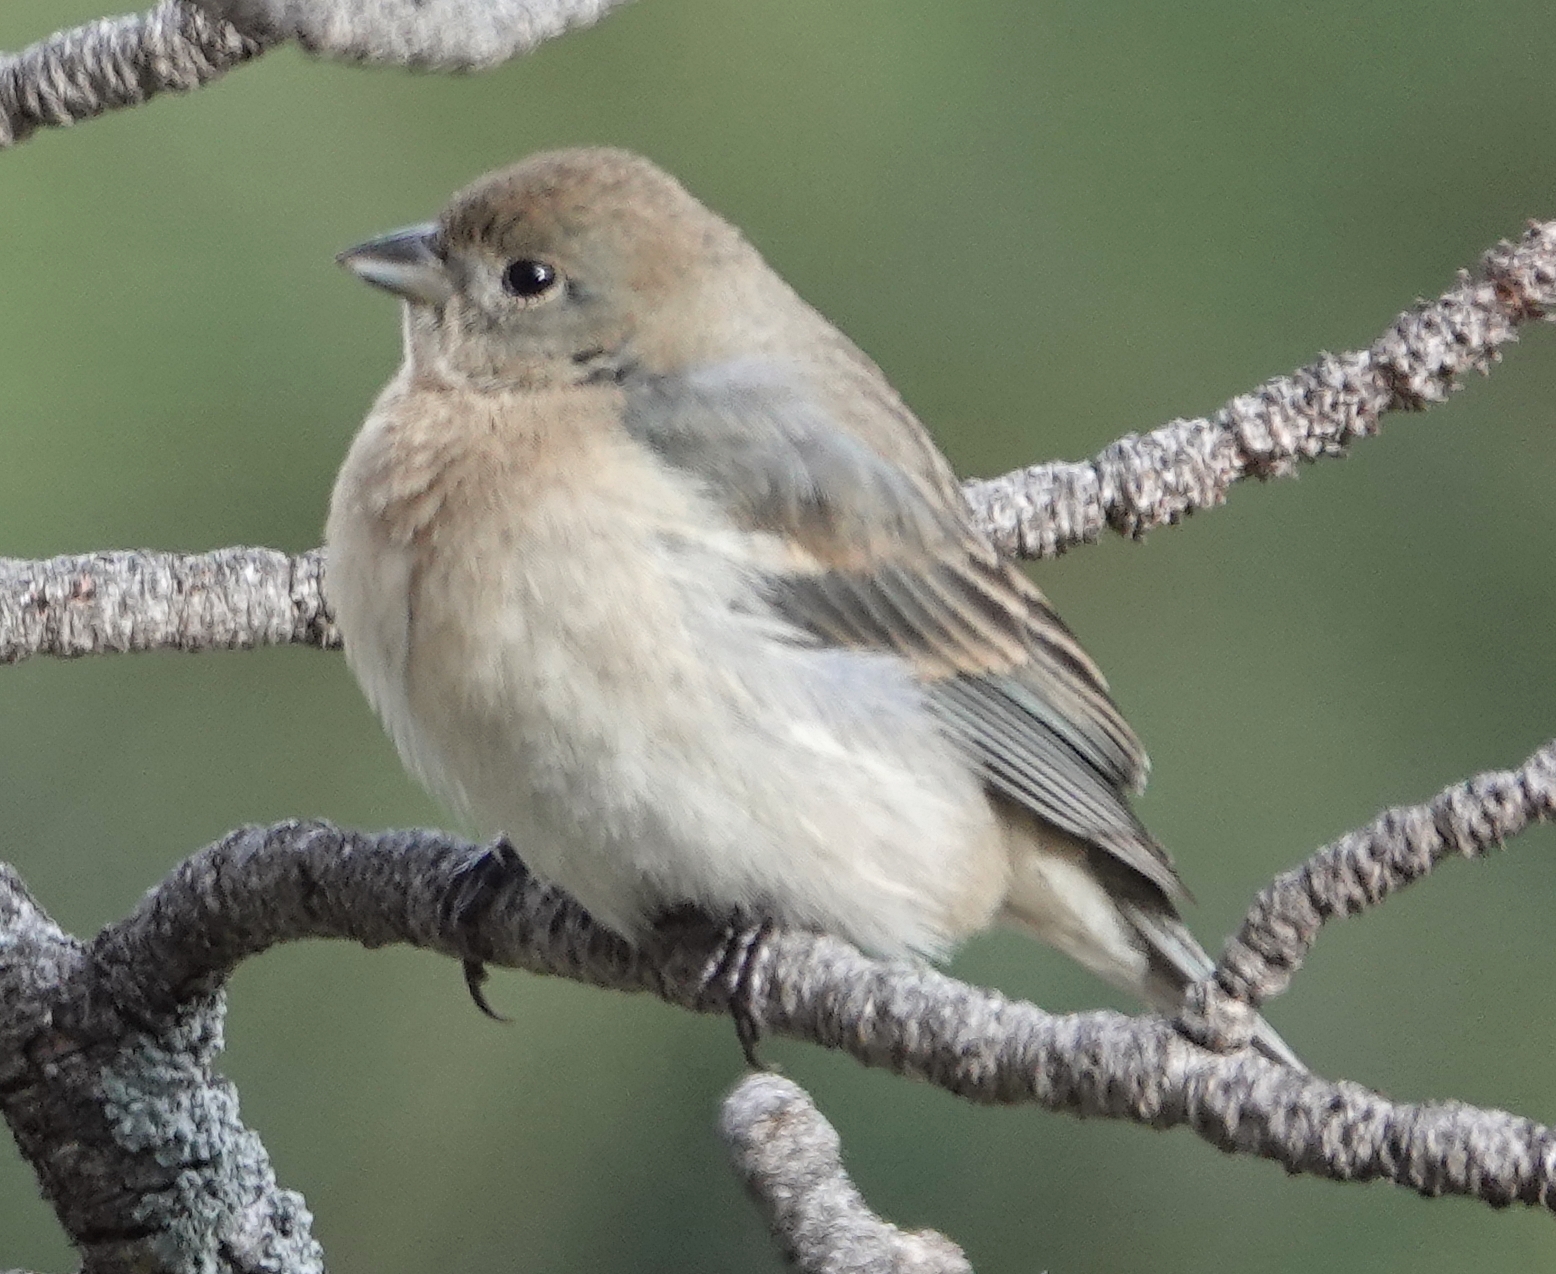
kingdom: Animalia
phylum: Chordata
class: Aves
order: Passeriformes
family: Cardinalidae
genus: Passerina
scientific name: Passerina amoena
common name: Lazuli bunting
